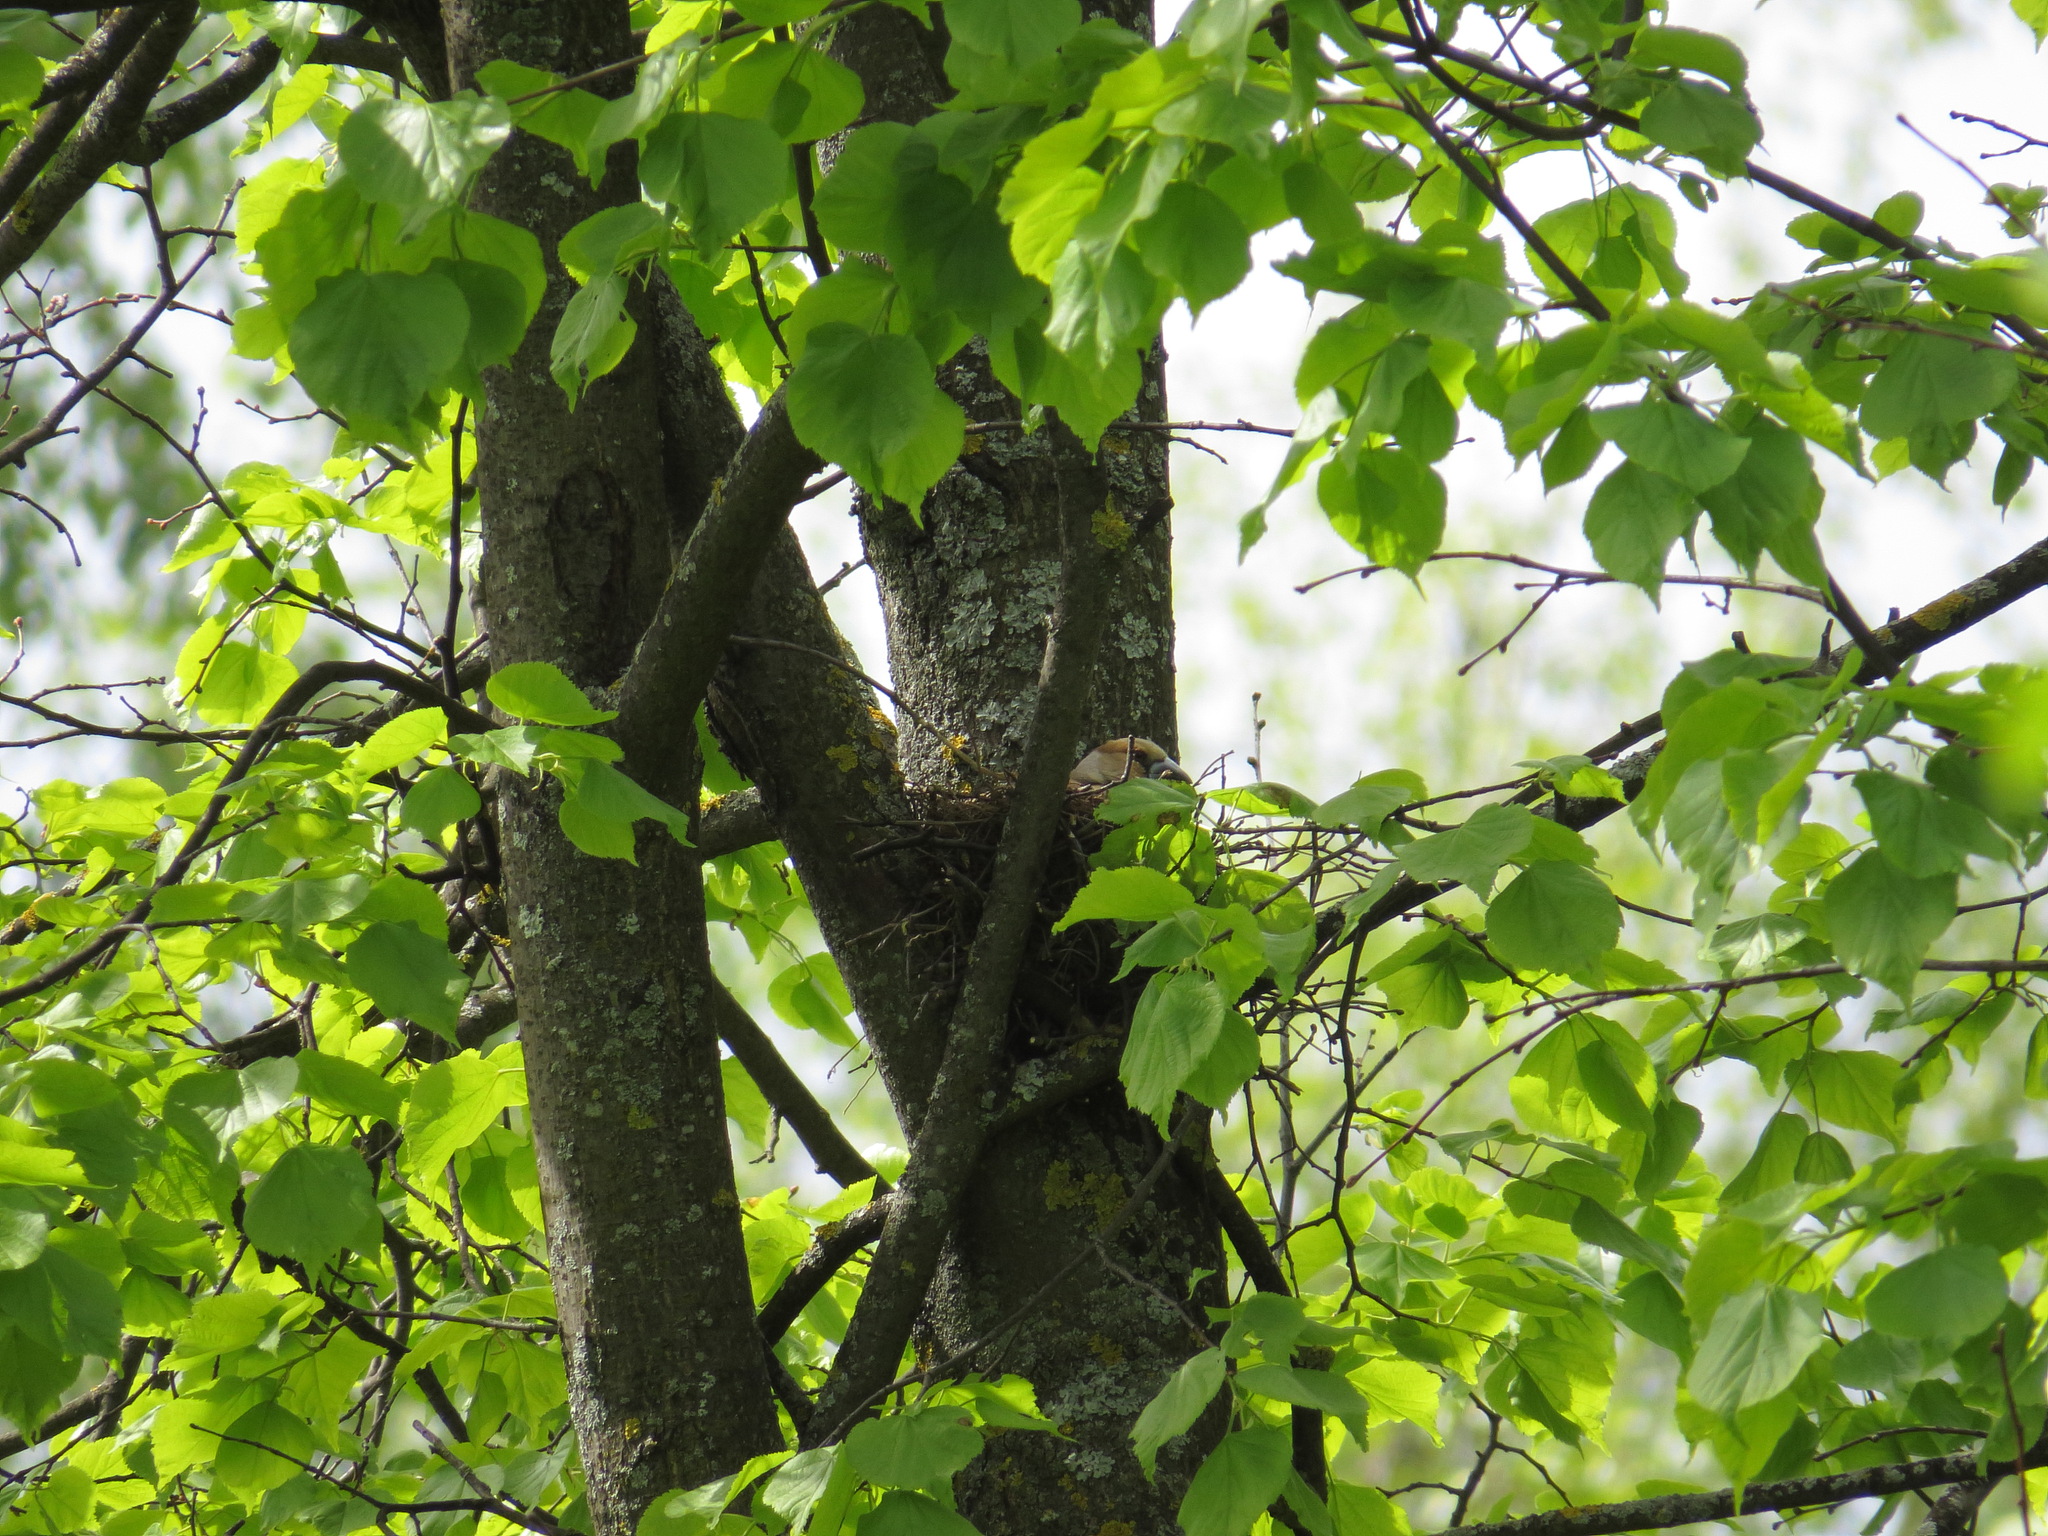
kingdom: Animalia
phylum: Chordata
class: Aves
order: Passeriformes
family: Fringillidae
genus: Coccothraustes
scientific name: Coccothraustes coccothraustes
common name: Hawfinch
